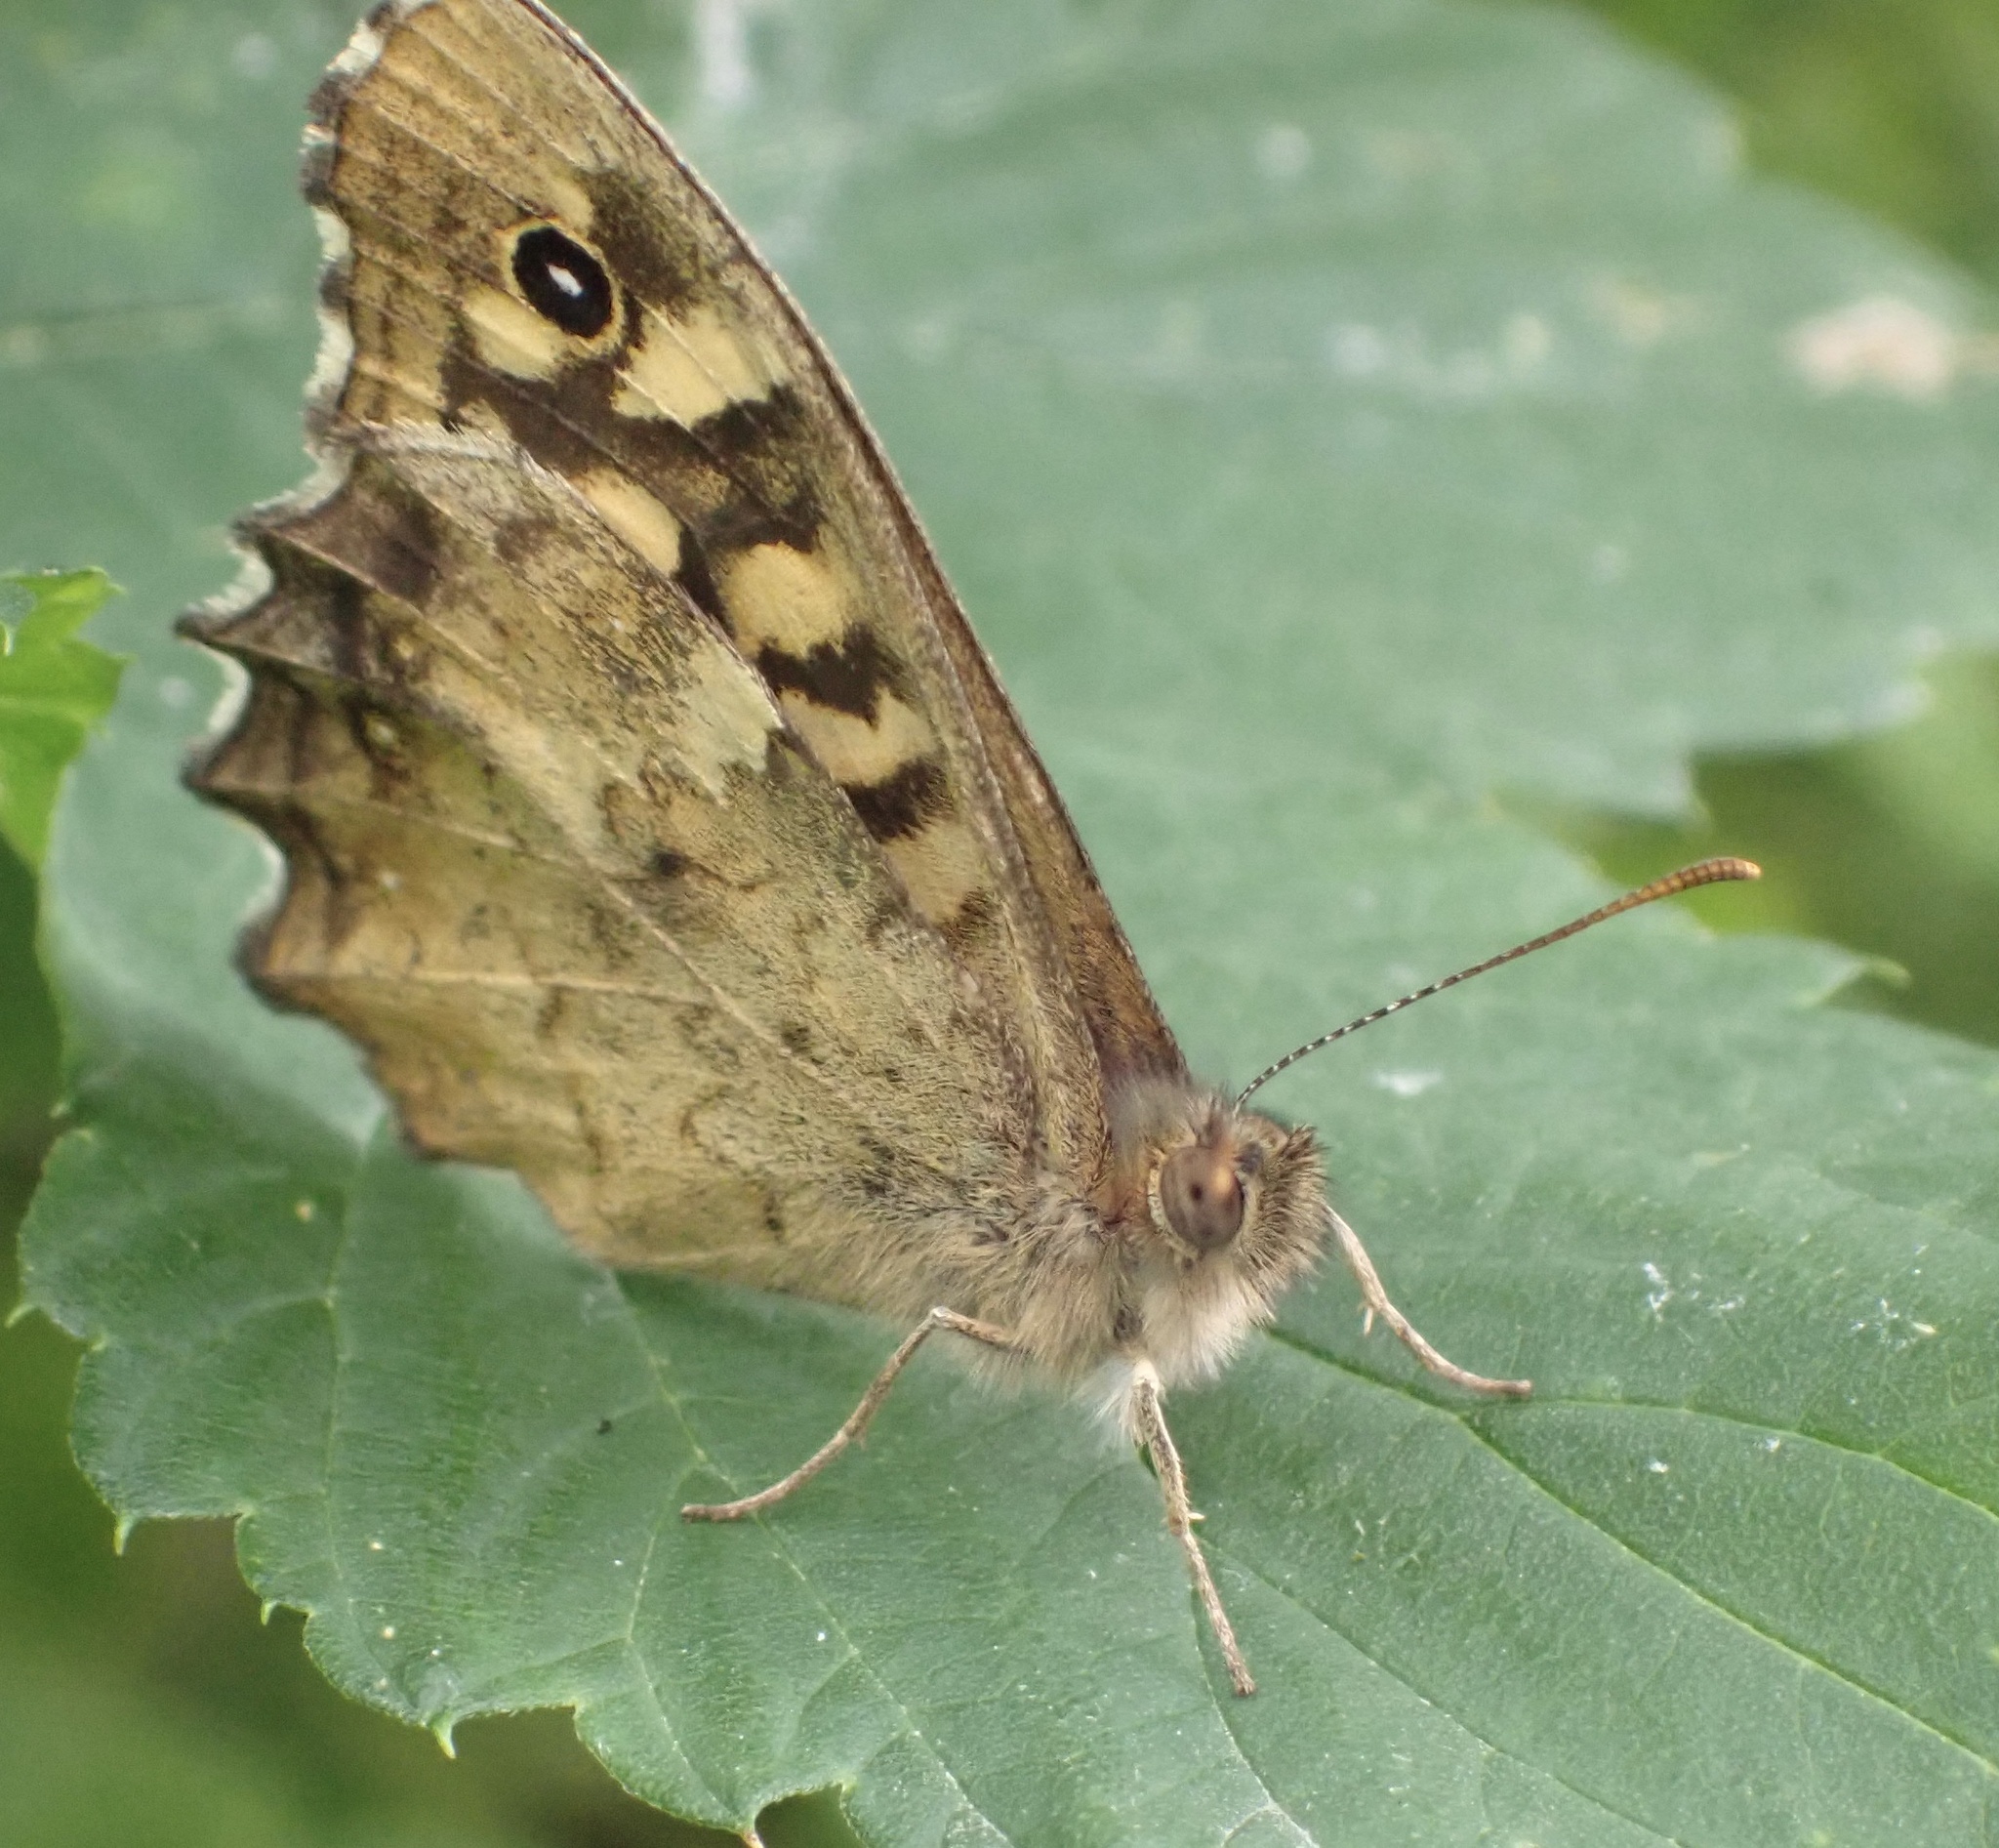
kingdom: Animalia
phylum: Arthropoda
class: Insecta
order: Lepidoptera
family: Nymphalidae
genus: Pararge
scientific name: Pararge aegeria
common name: Speckled wood
